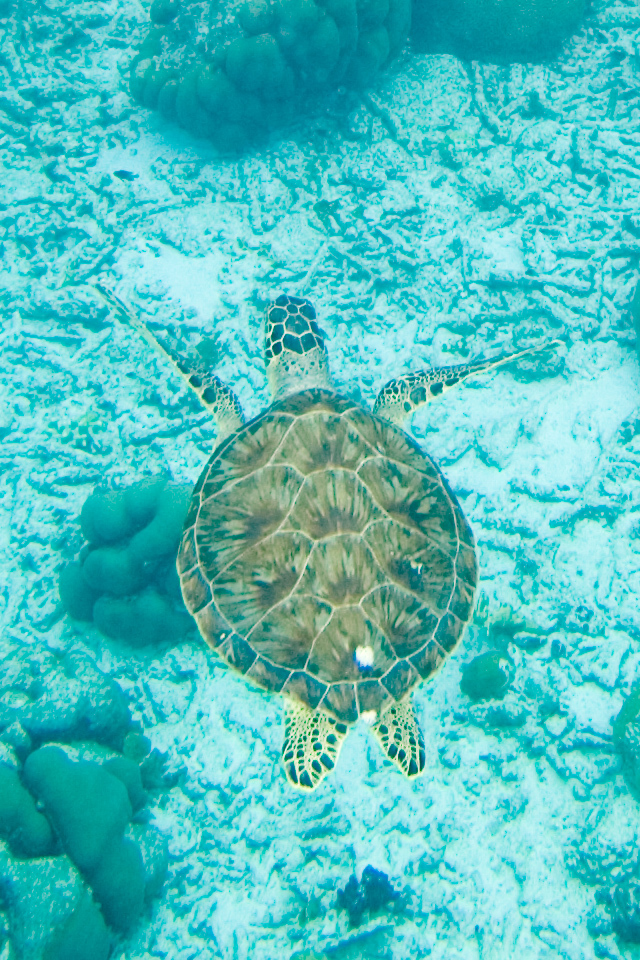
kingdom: Animalia
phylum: Chordata
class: Testudines
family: Cheloniidae
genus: Chelonia
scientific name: Chelonia mydas
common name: Green turtle
